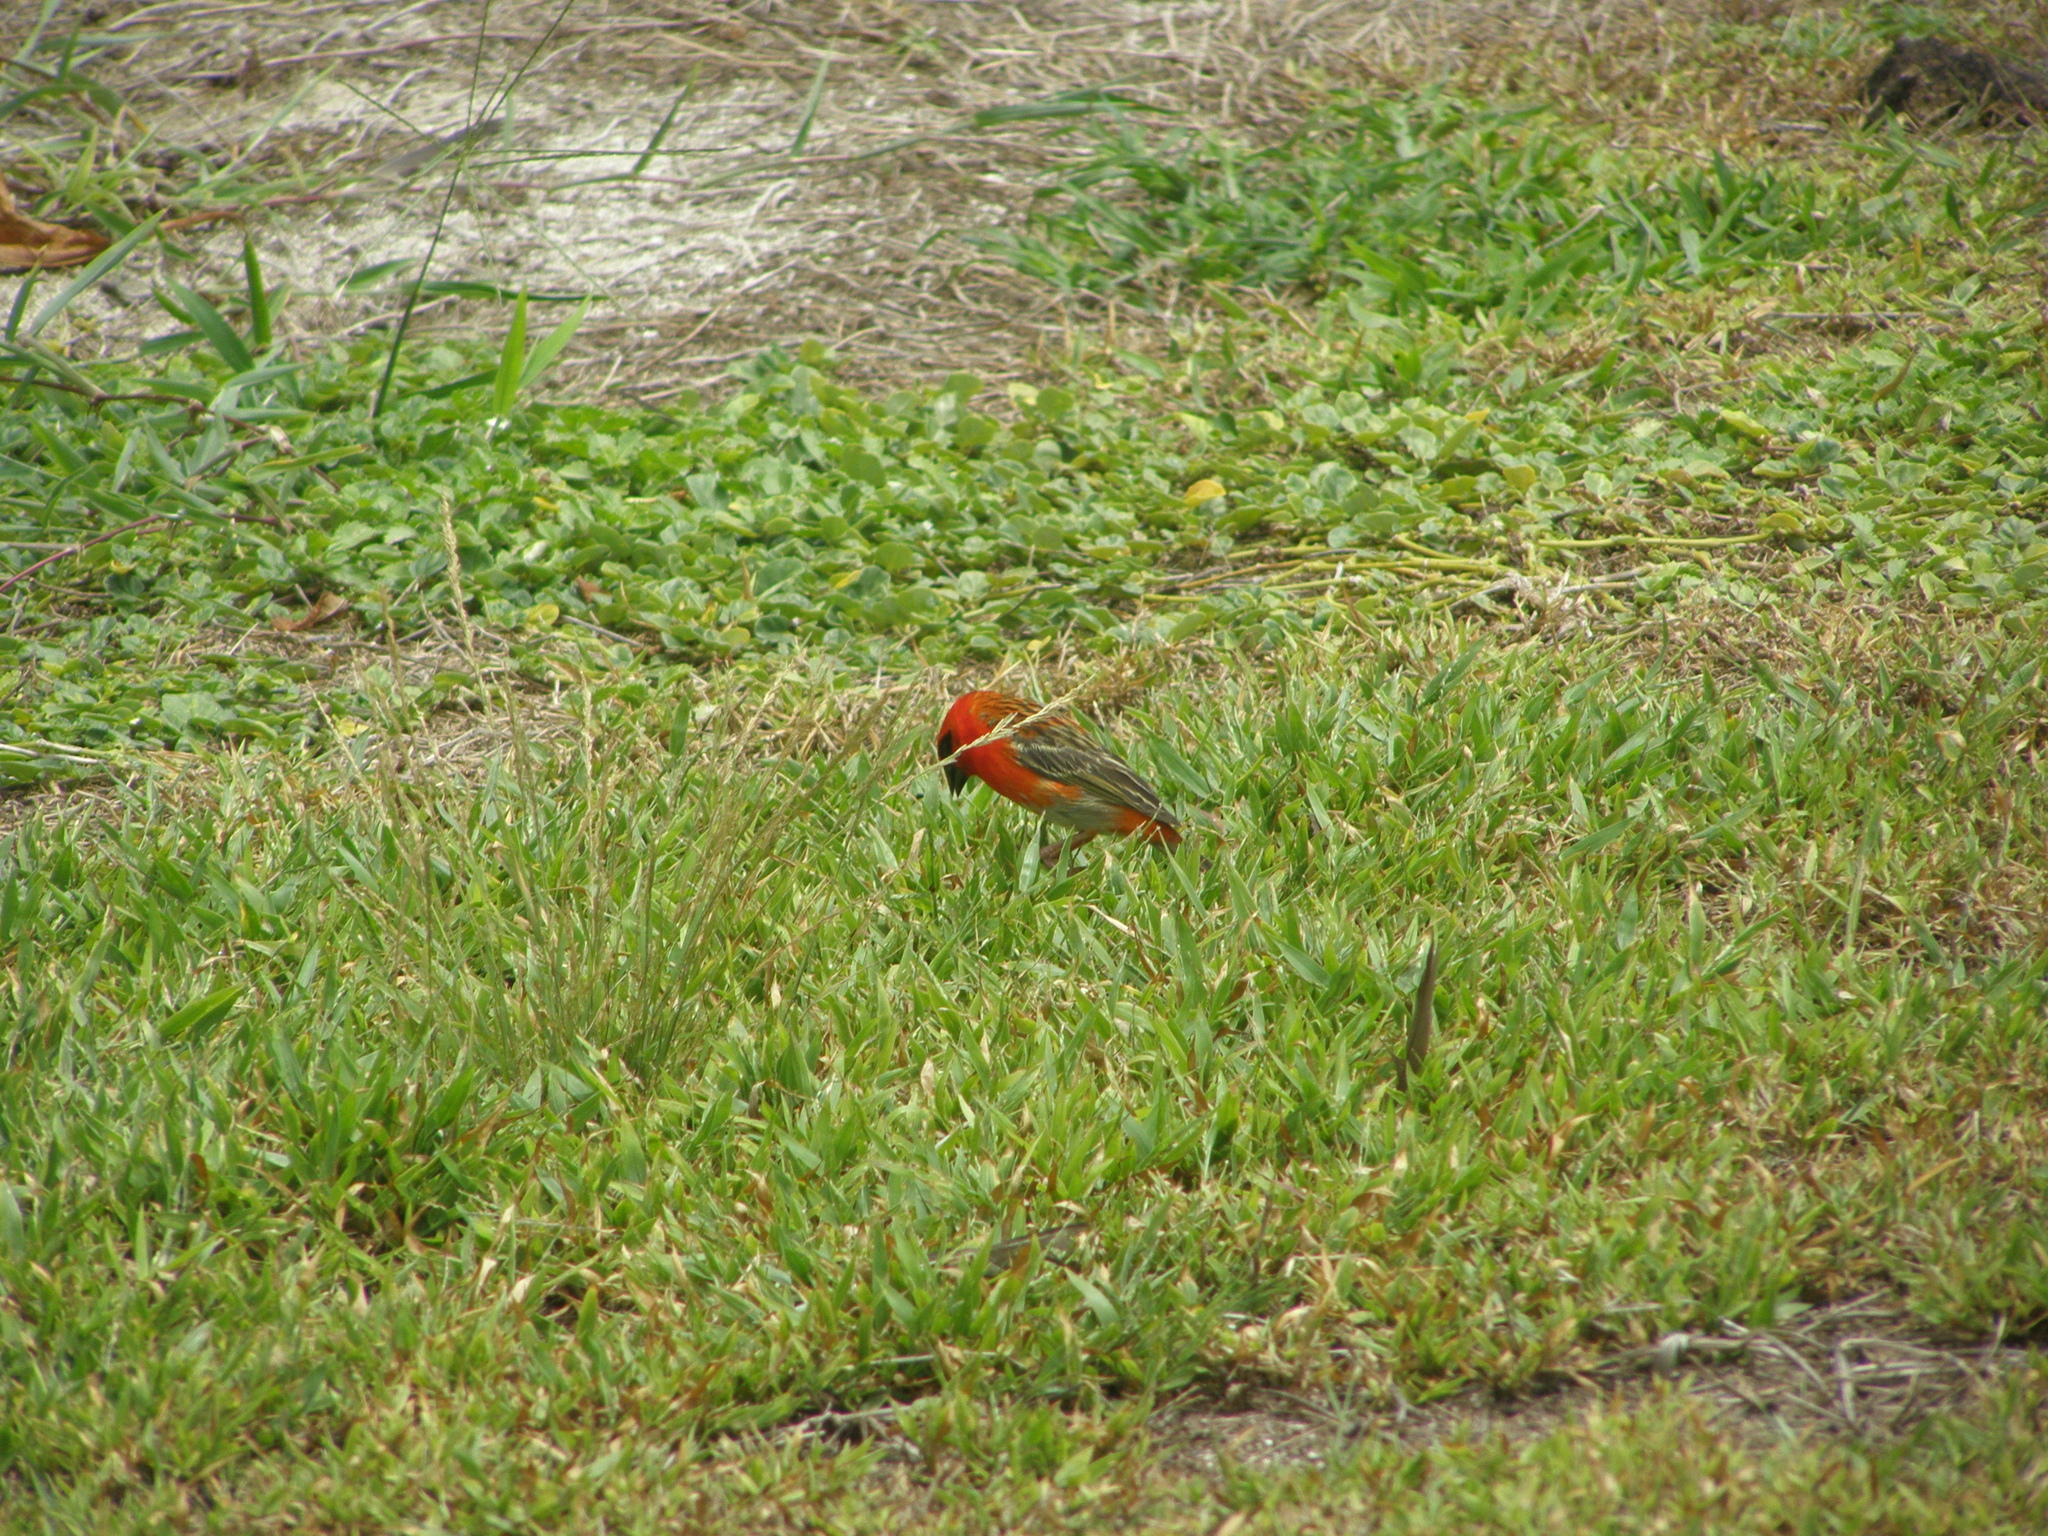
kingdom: Animalia
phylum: Chordata
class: Aves
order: Passeriformes
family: Ploceidae
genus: Foudia
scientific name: Foudia madagascariensis
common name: Red fody
